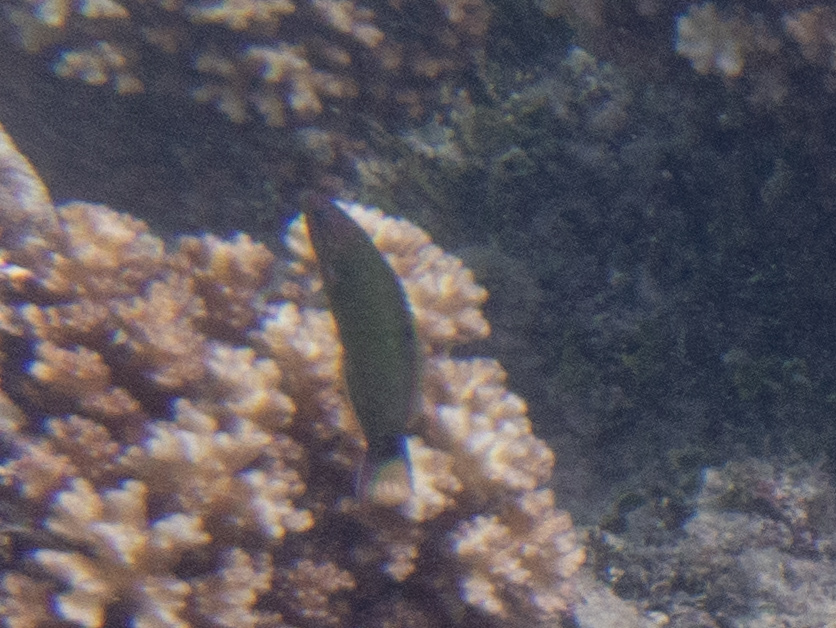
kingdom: Animalia
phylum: Chordata
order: Perciformes
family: Labridae
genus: Thalassoma
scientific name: Thalassoma lunare
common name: Blue wrasse
